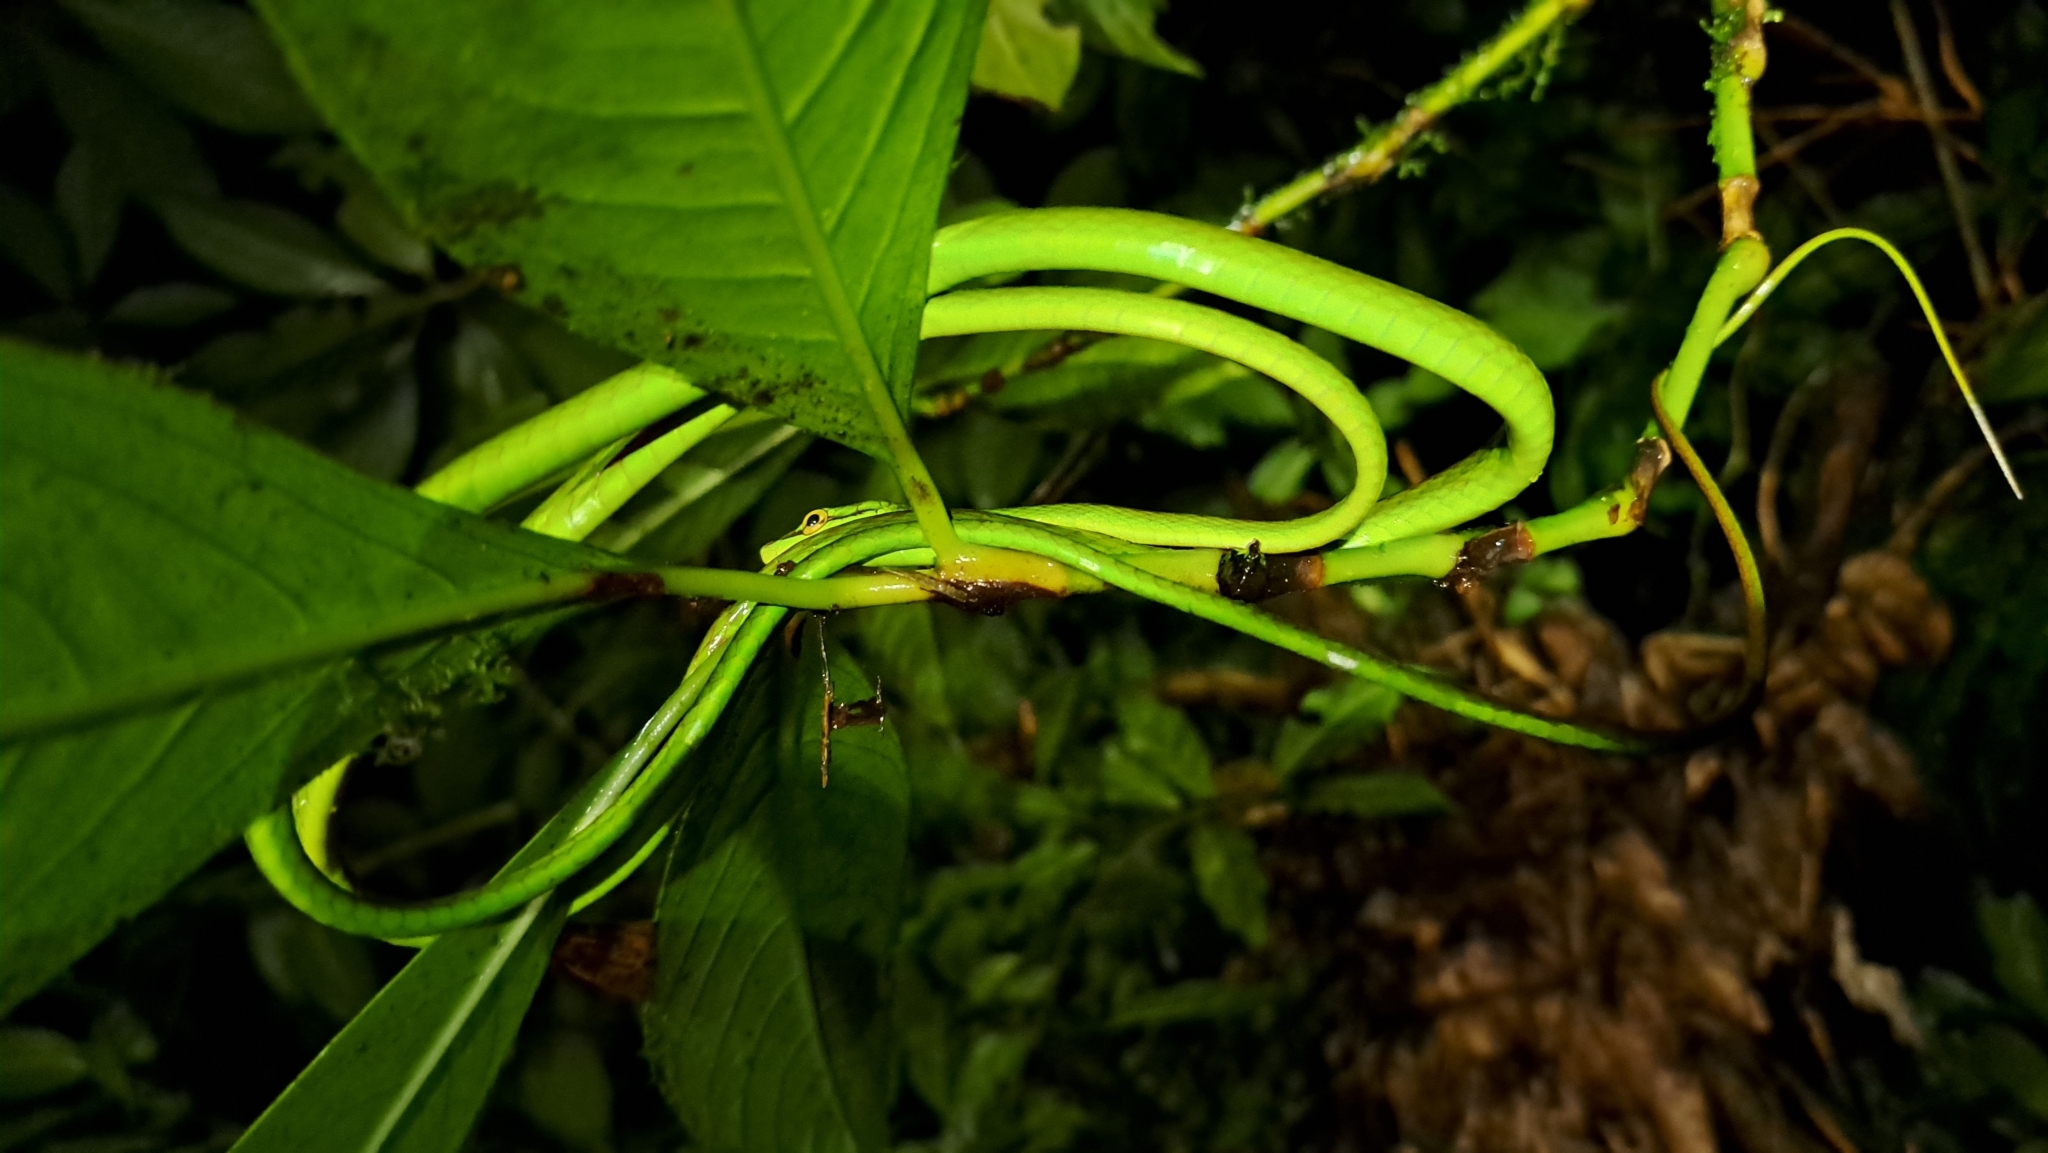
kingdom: Animalia
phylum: Chordata
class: Squamata
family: Colubridae
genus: Oxybelis
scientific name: Oxybelis brevirostris
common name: Cope's vine snake
